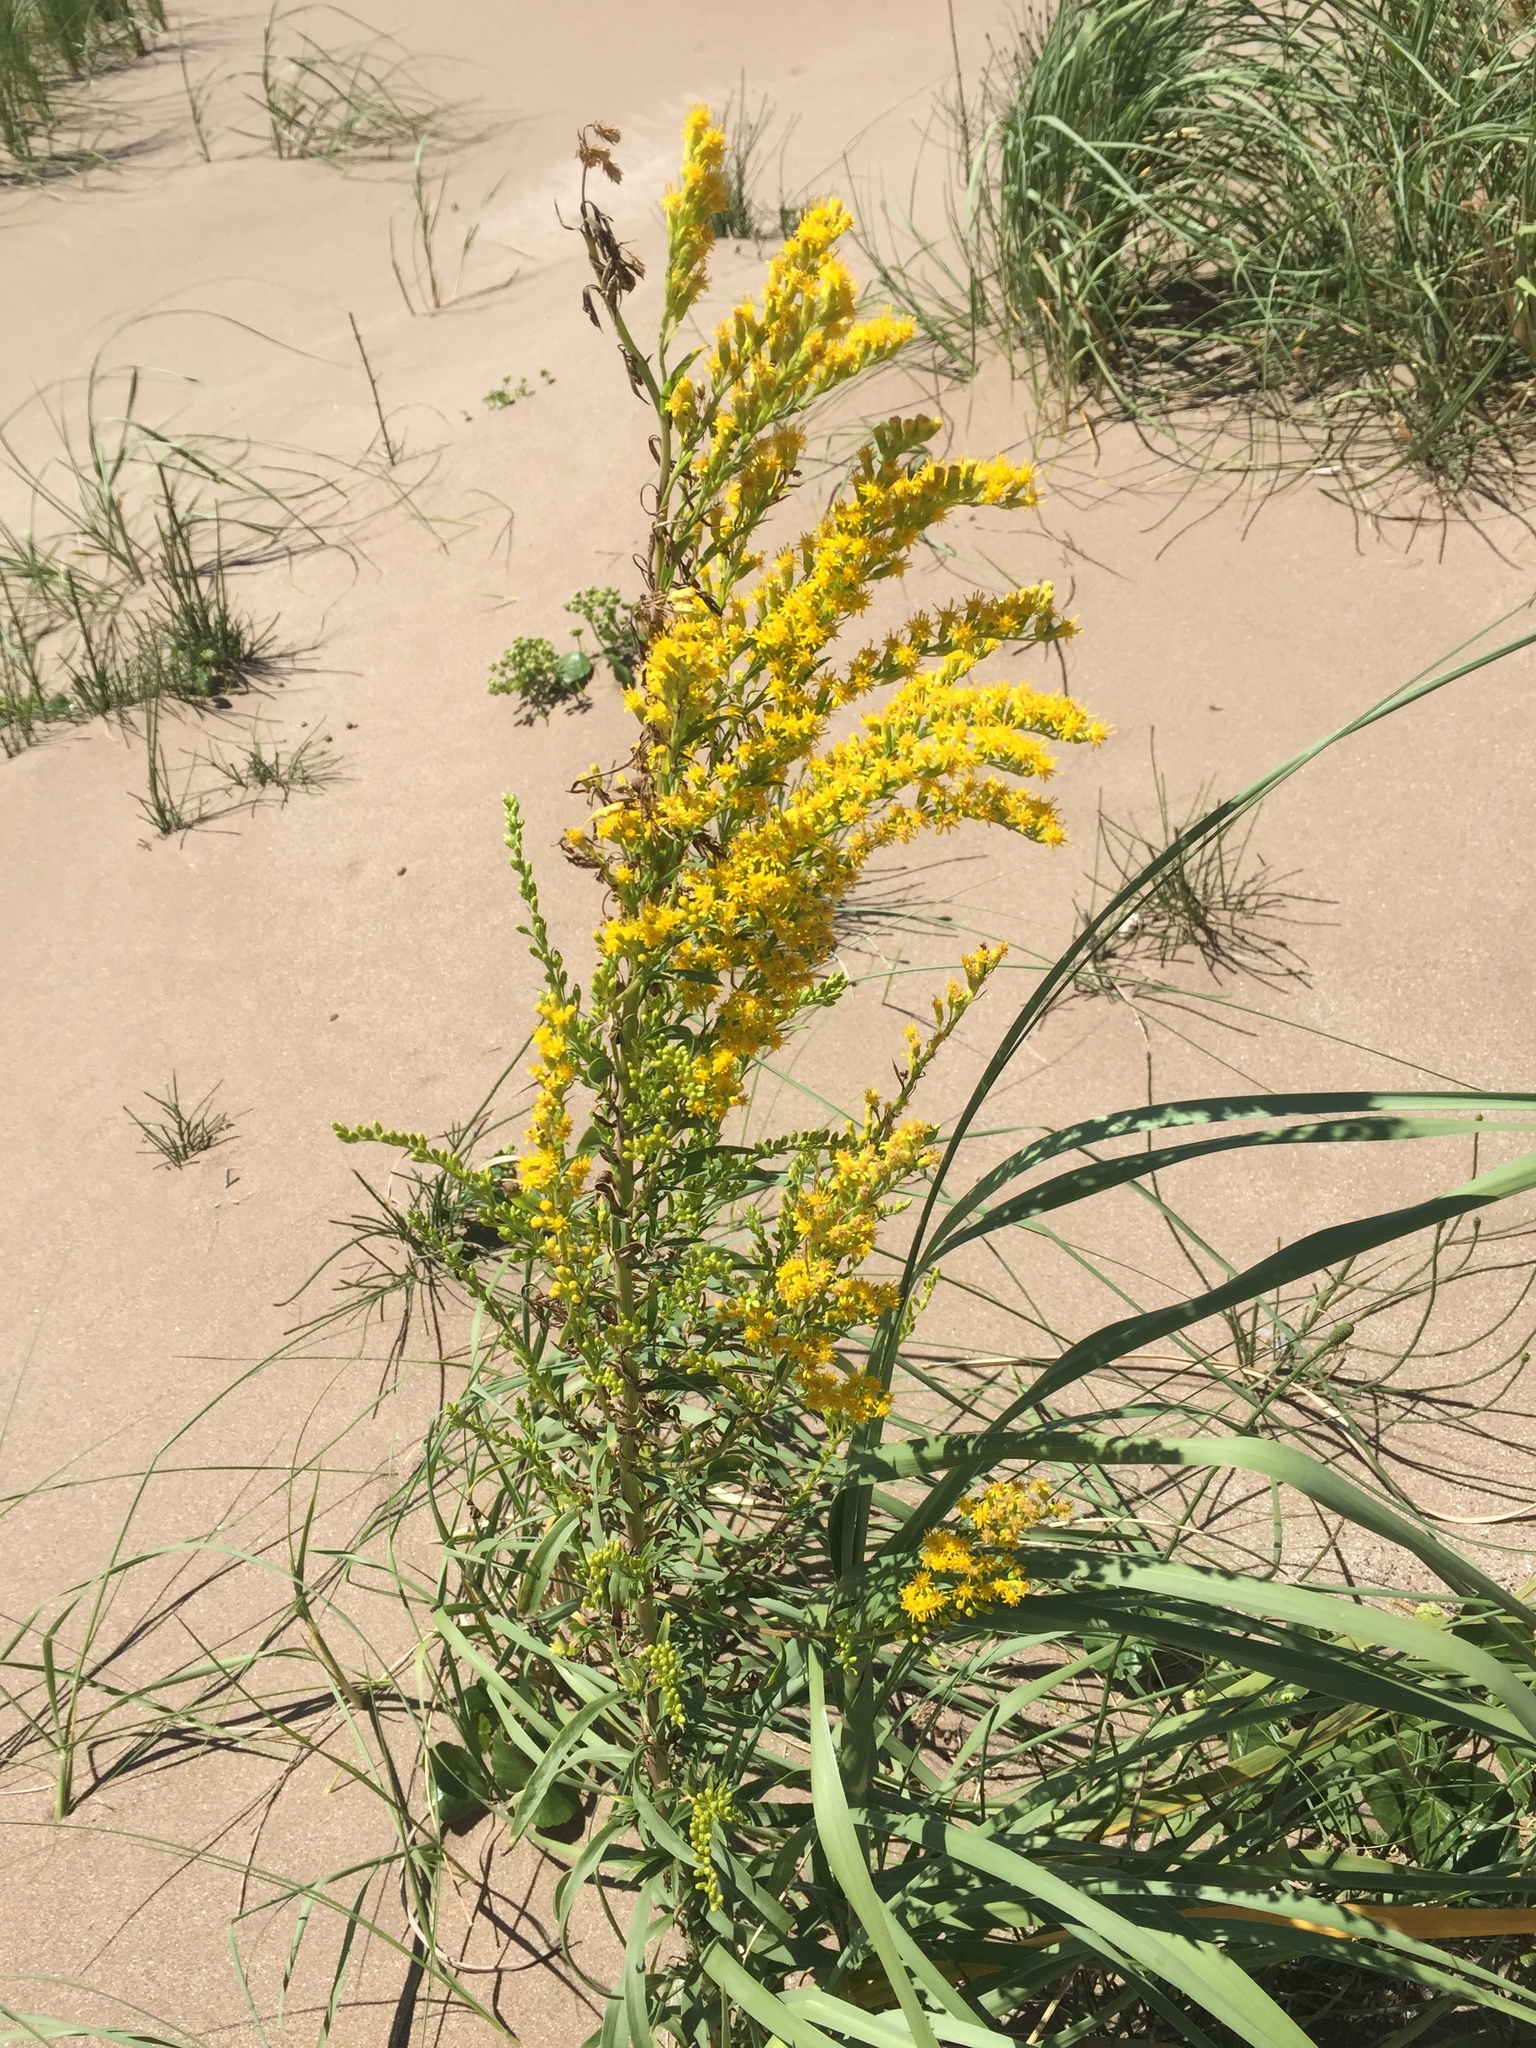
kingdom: Plantae
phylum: Tracheophyta
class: Magnoliopsida
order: Asterales
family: Asteraceae
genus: Solidago
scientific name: Solidago chilensis
